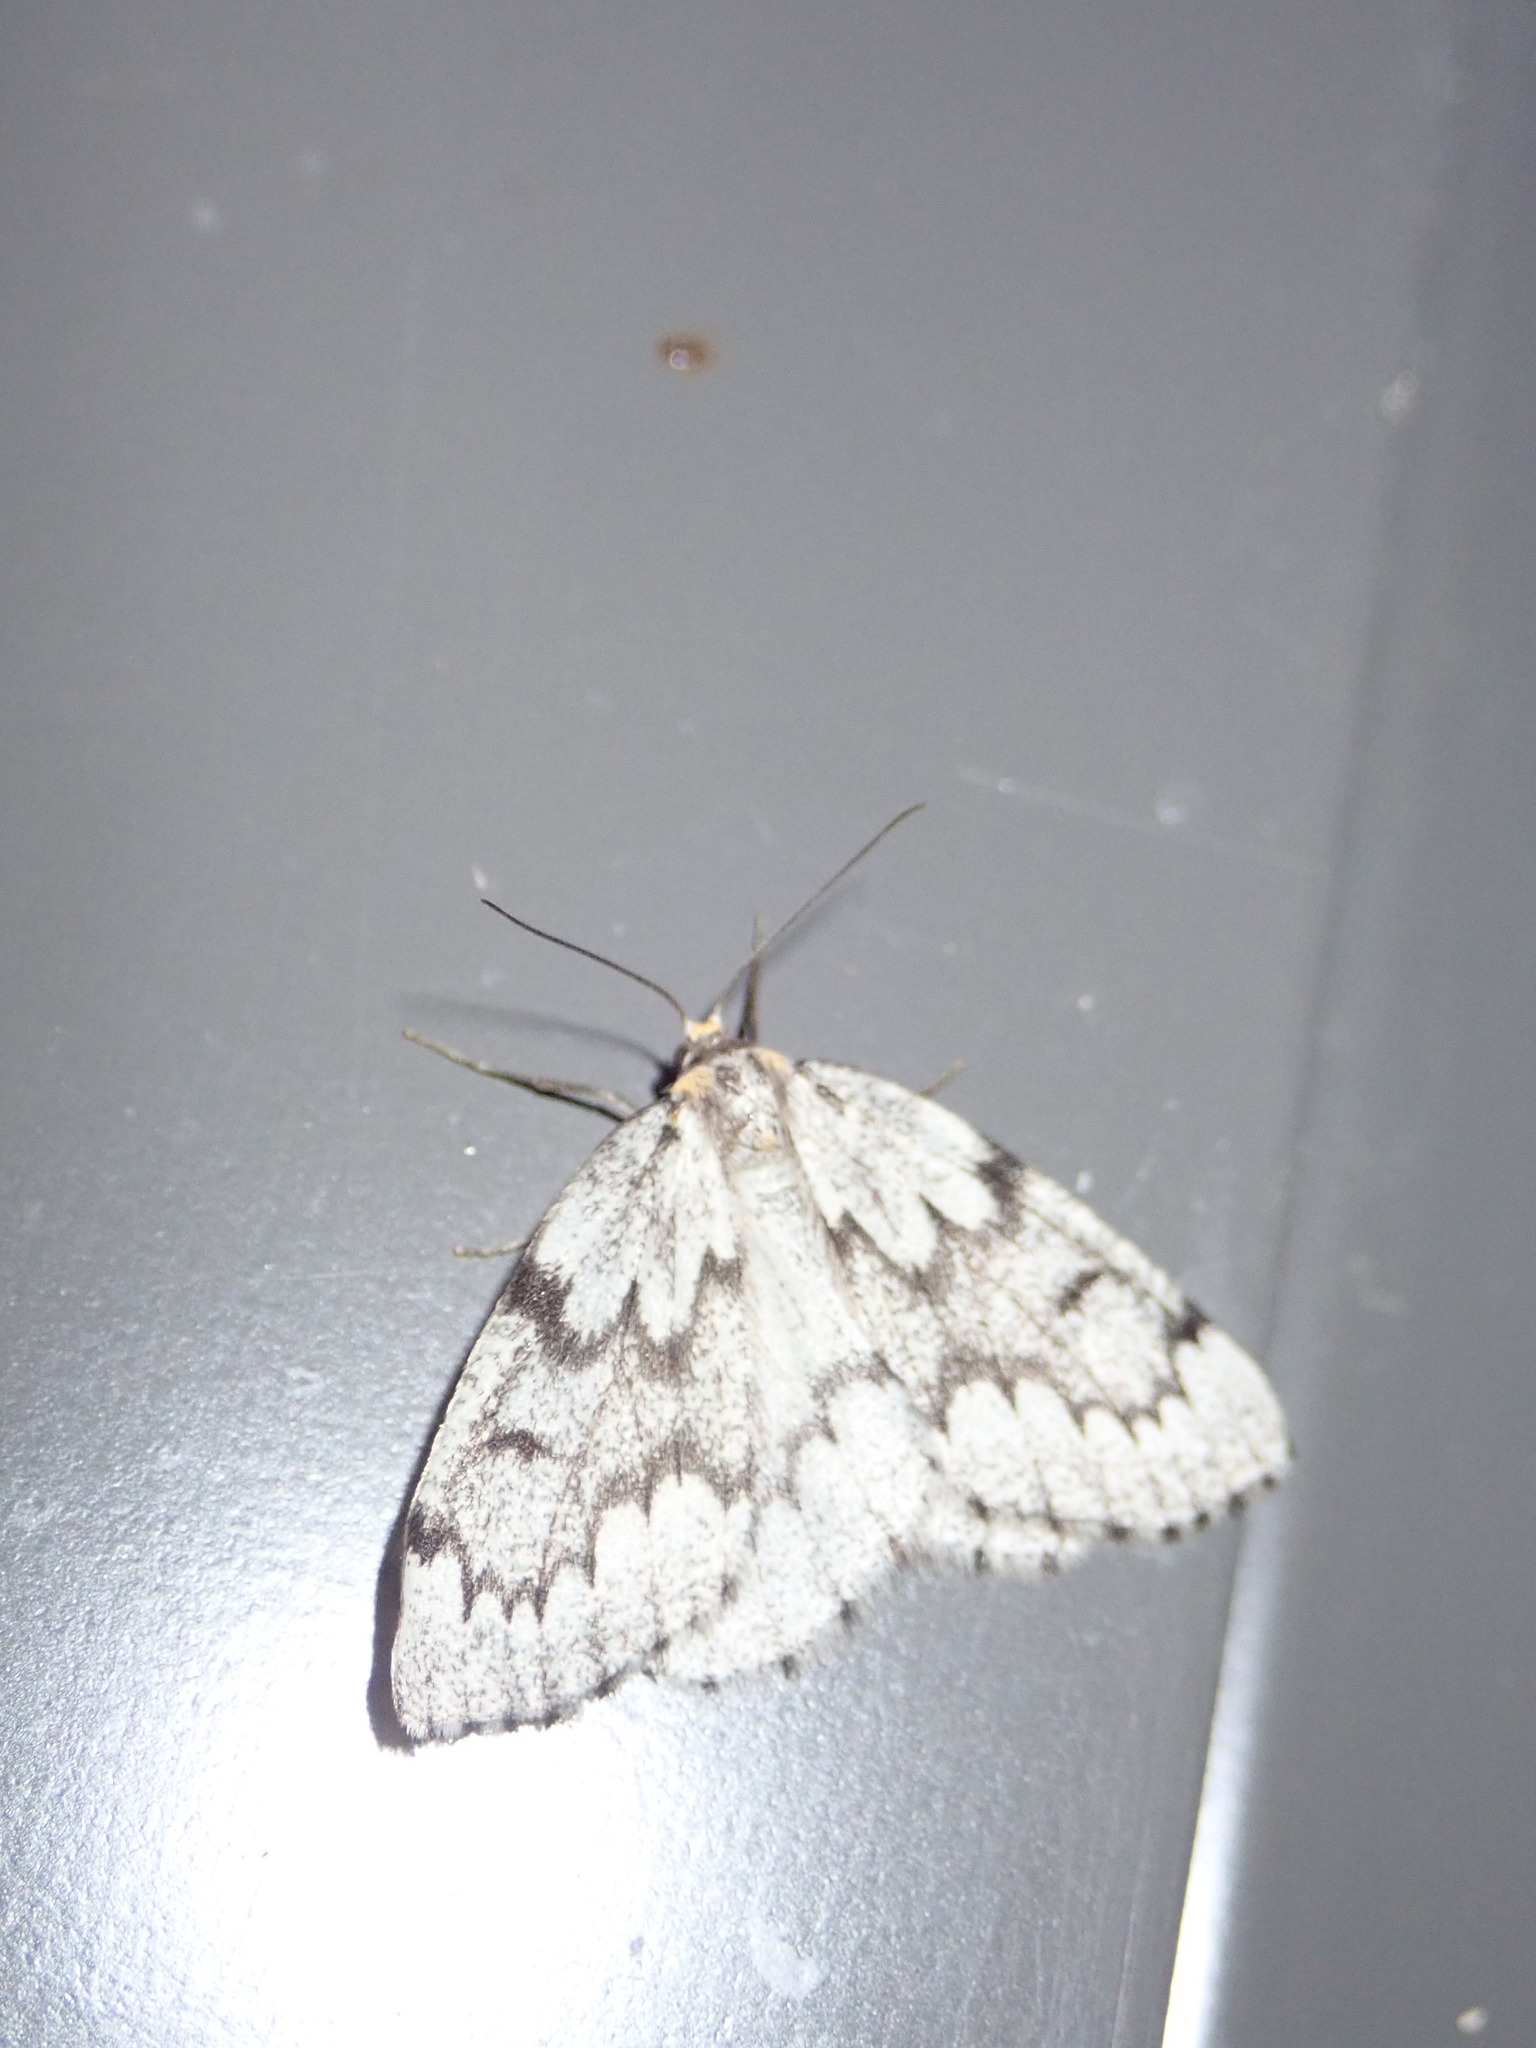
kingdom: Animalia
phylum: Arthropoda
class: Insecta
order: Lepidoptera
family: Geometridae
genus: Nepytia
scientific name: Nepytia canosaria
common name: False hemlock looper
